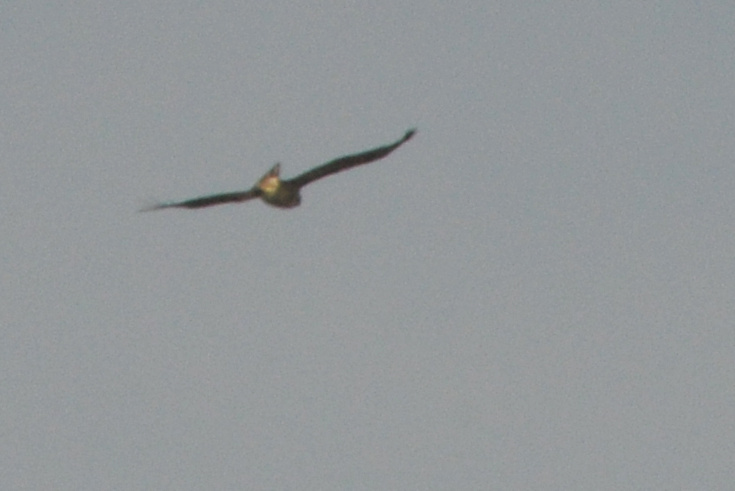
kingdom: Animalia
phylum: Chordata
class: Aves
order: Accipitriformes
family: Accipitridae
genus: Buteo
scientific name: Buteo jamaicensis
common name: Red-tailed hawk
